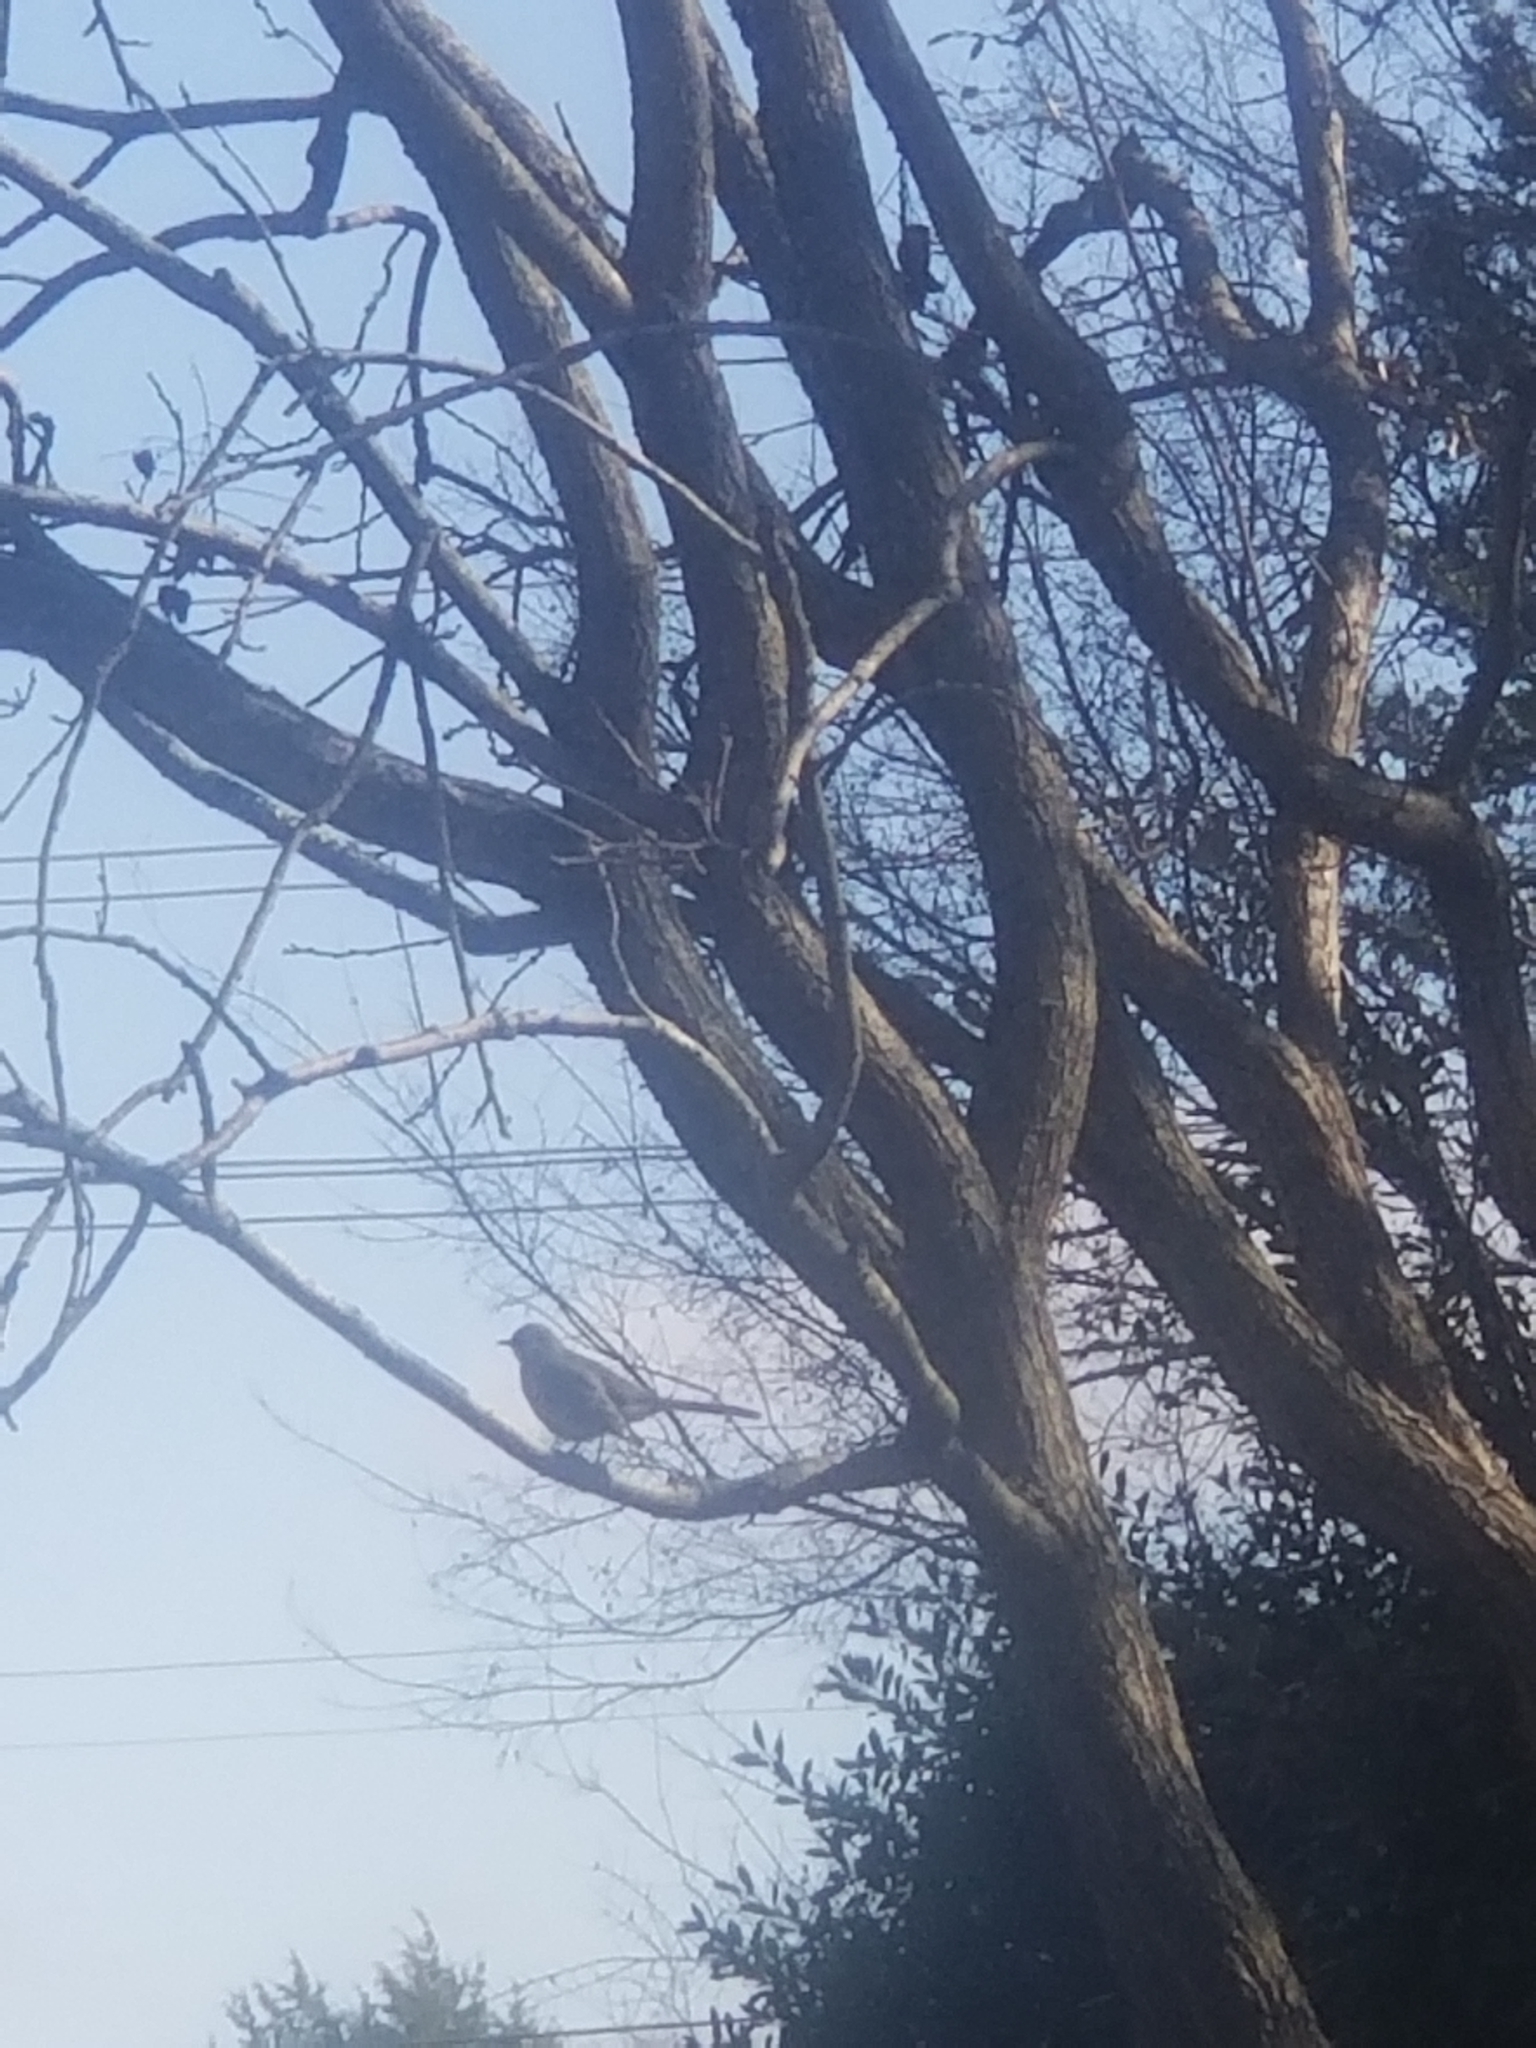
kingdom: Animalia
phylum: Chordata
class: Aves
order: Passeriformes
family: Mimidae
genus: Mimus
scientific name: Mimus polyglottos
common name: Northern mockingbird
